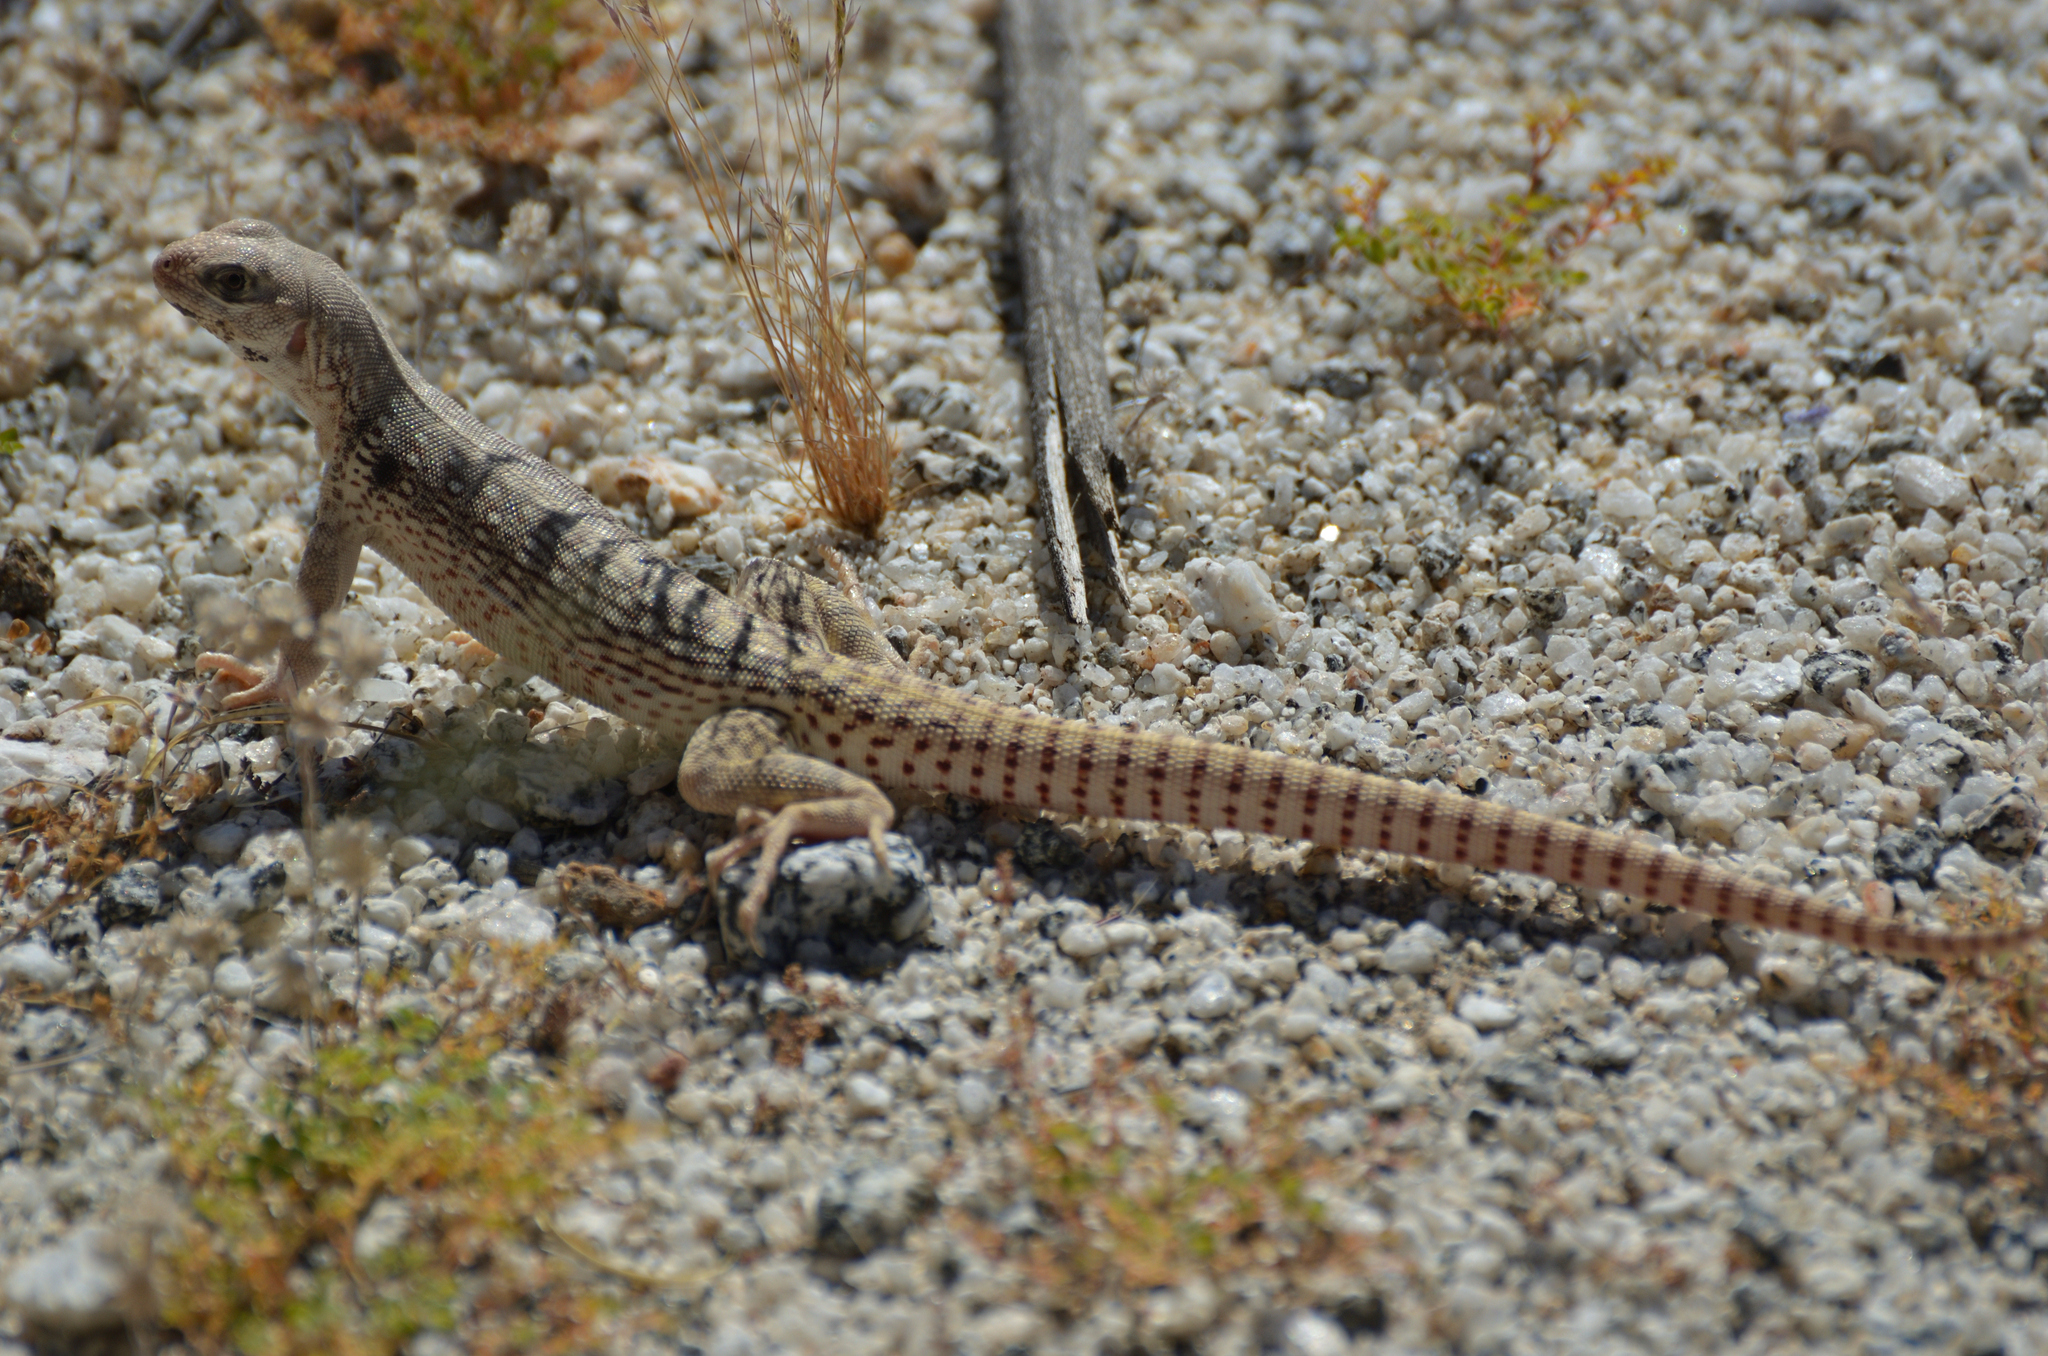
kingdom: Animalia
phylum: Chordata
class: Squamata
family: Iguanidae
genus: Dipsosaurus
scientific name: Dipsosaurus dorsalis
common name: Desert iguana
